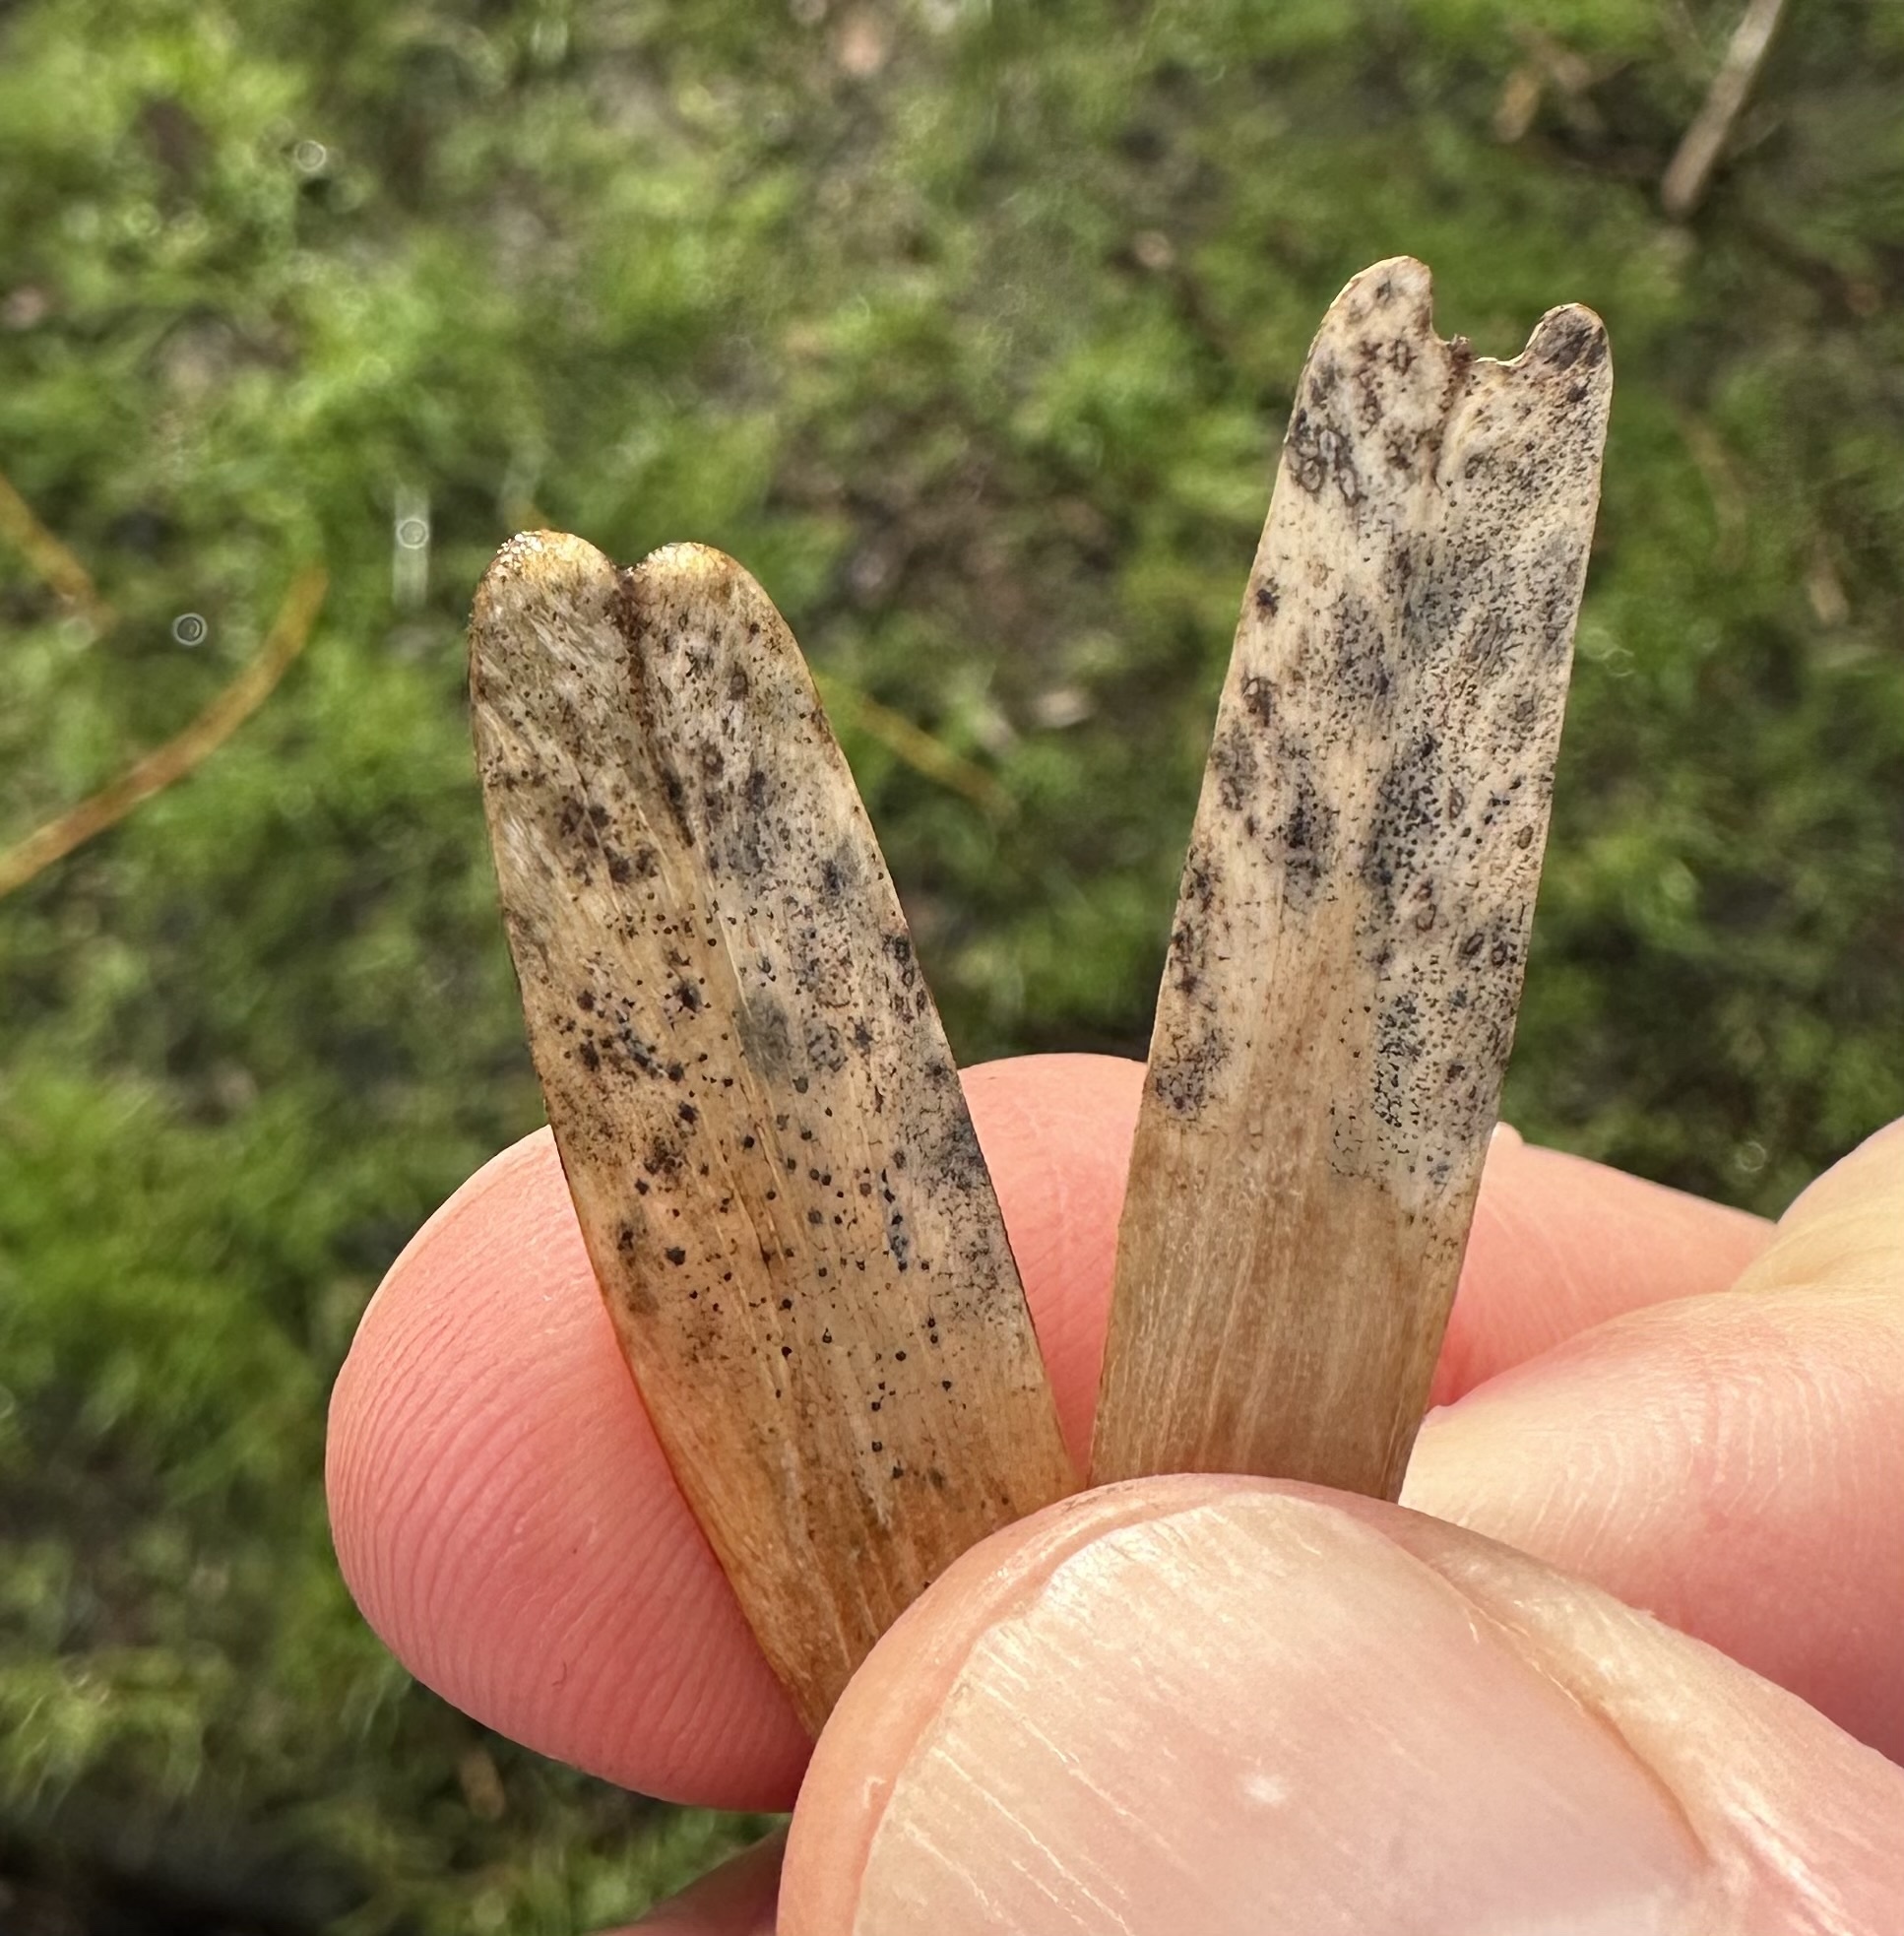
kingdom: Fungi
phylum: Ascomycota
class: Dothideomycetes
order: Pleosporales
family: Phaeosphaeriaceae
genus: Neosetophoma
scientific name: Neosetophoma samarorum
